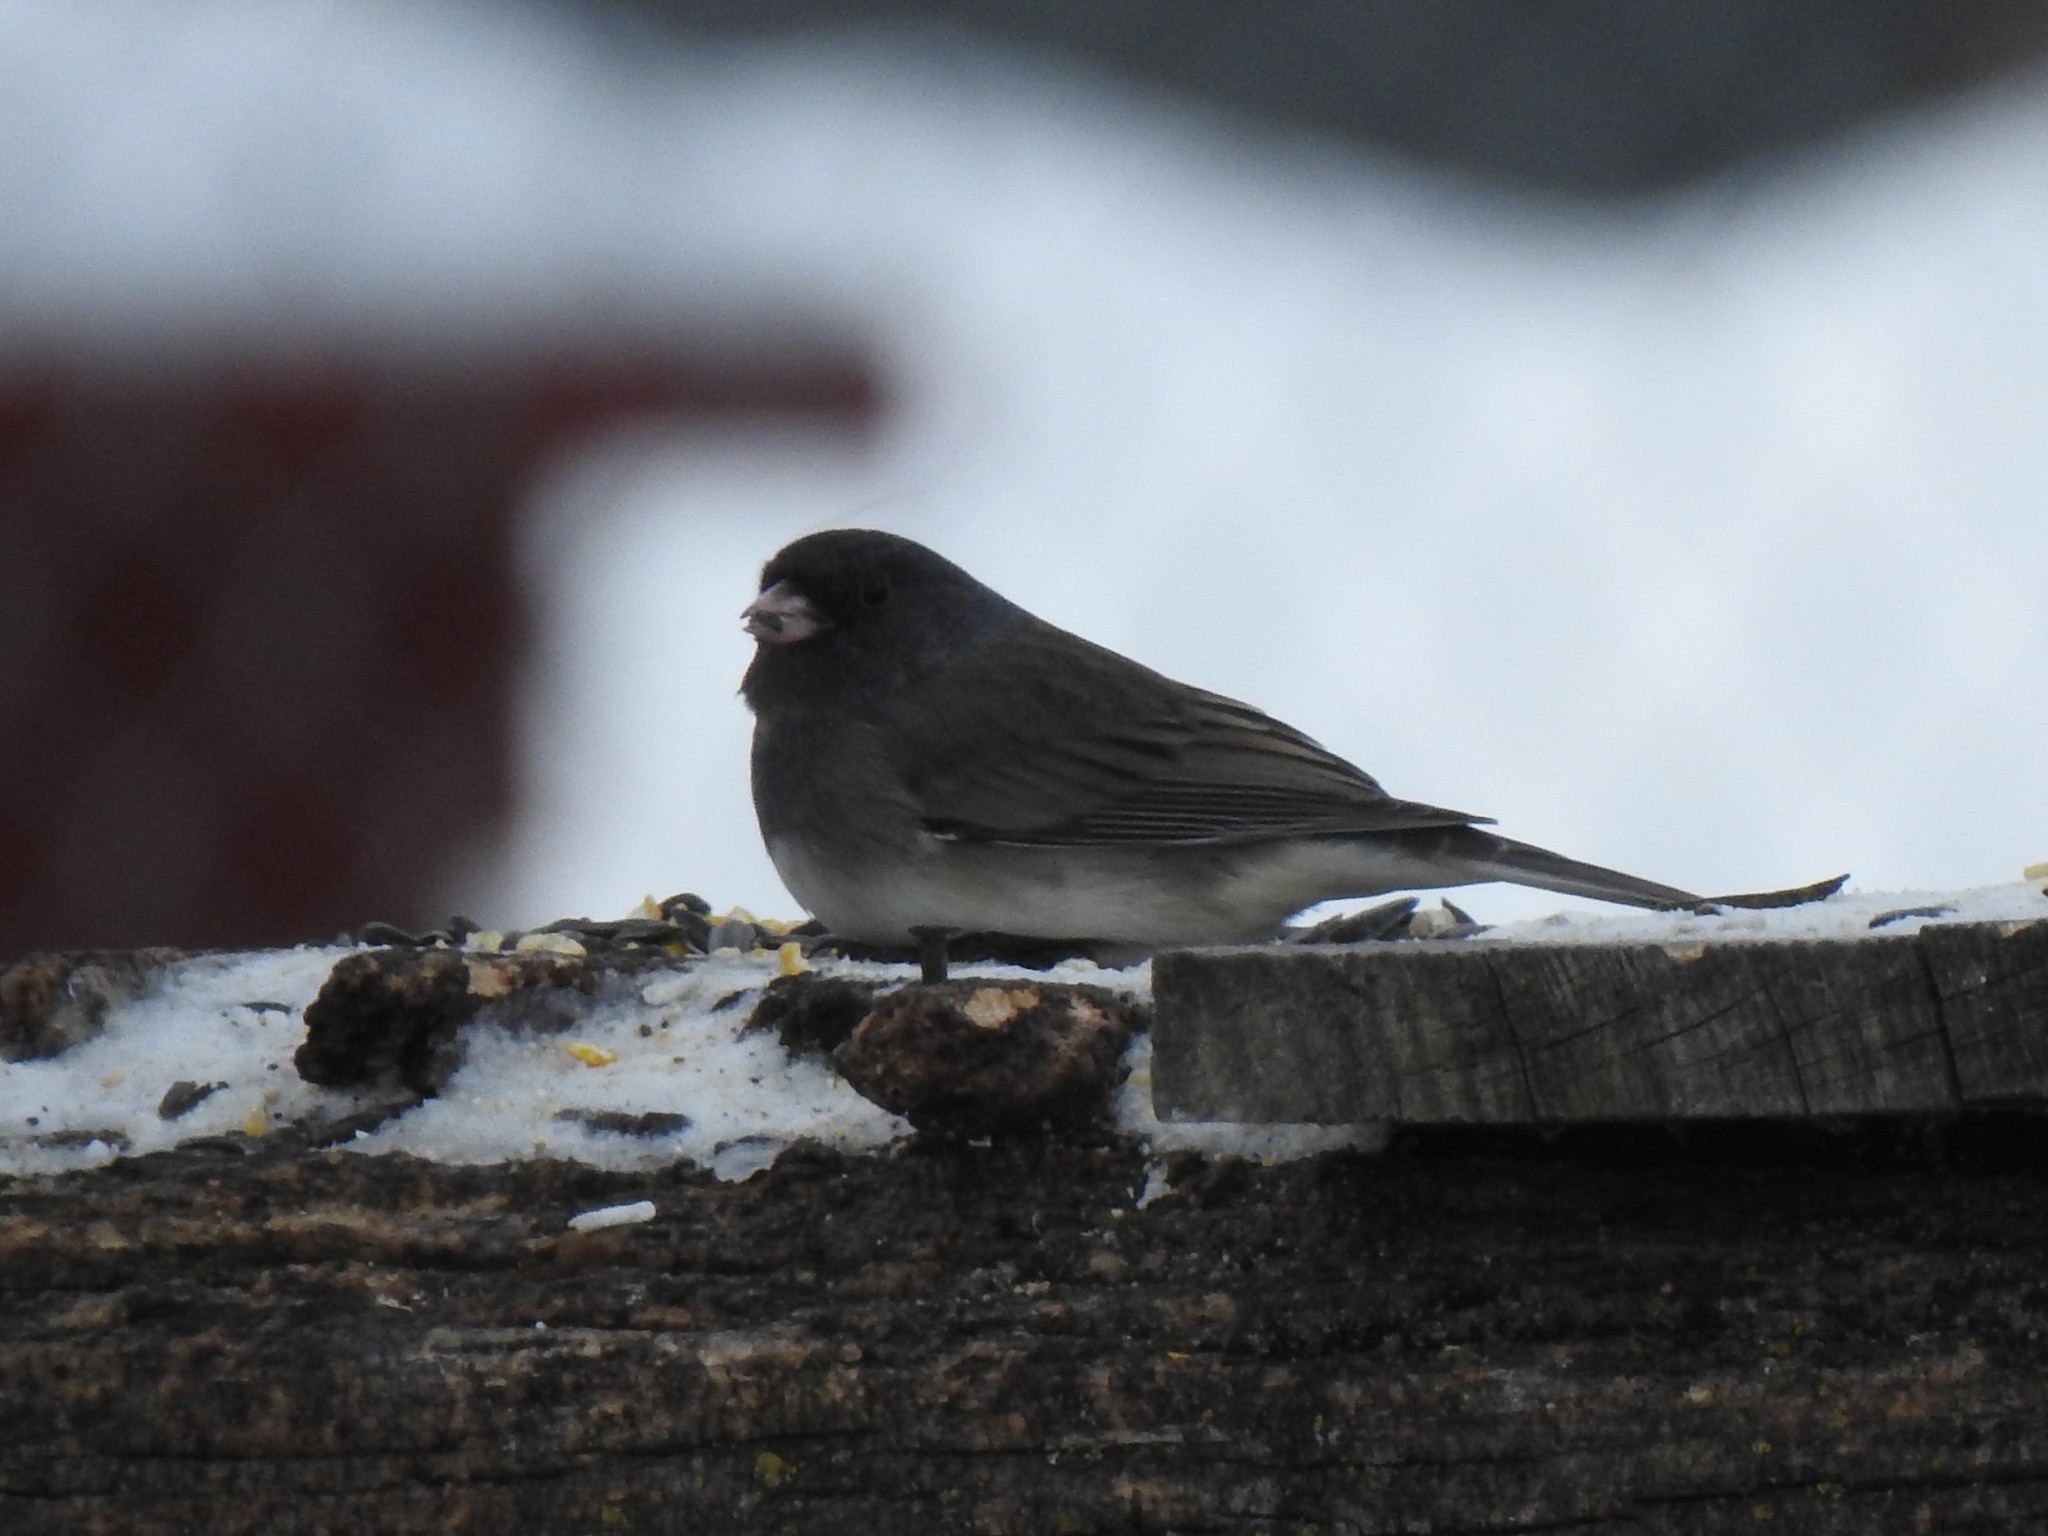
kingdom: Animalia
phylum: Chordata
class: Aves
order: Passeriformes
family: Passerellidae
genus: Junco
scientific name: Junco hyemalis
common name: Dark-eyed junco
